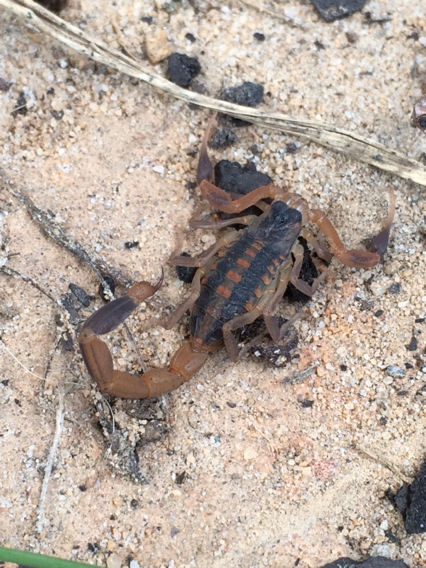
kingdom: Animalia
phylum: Arthropoda
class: Arachnida
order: Scorpiones
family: Buthidae
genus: Centruroides
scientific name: Centruroides vittatus
